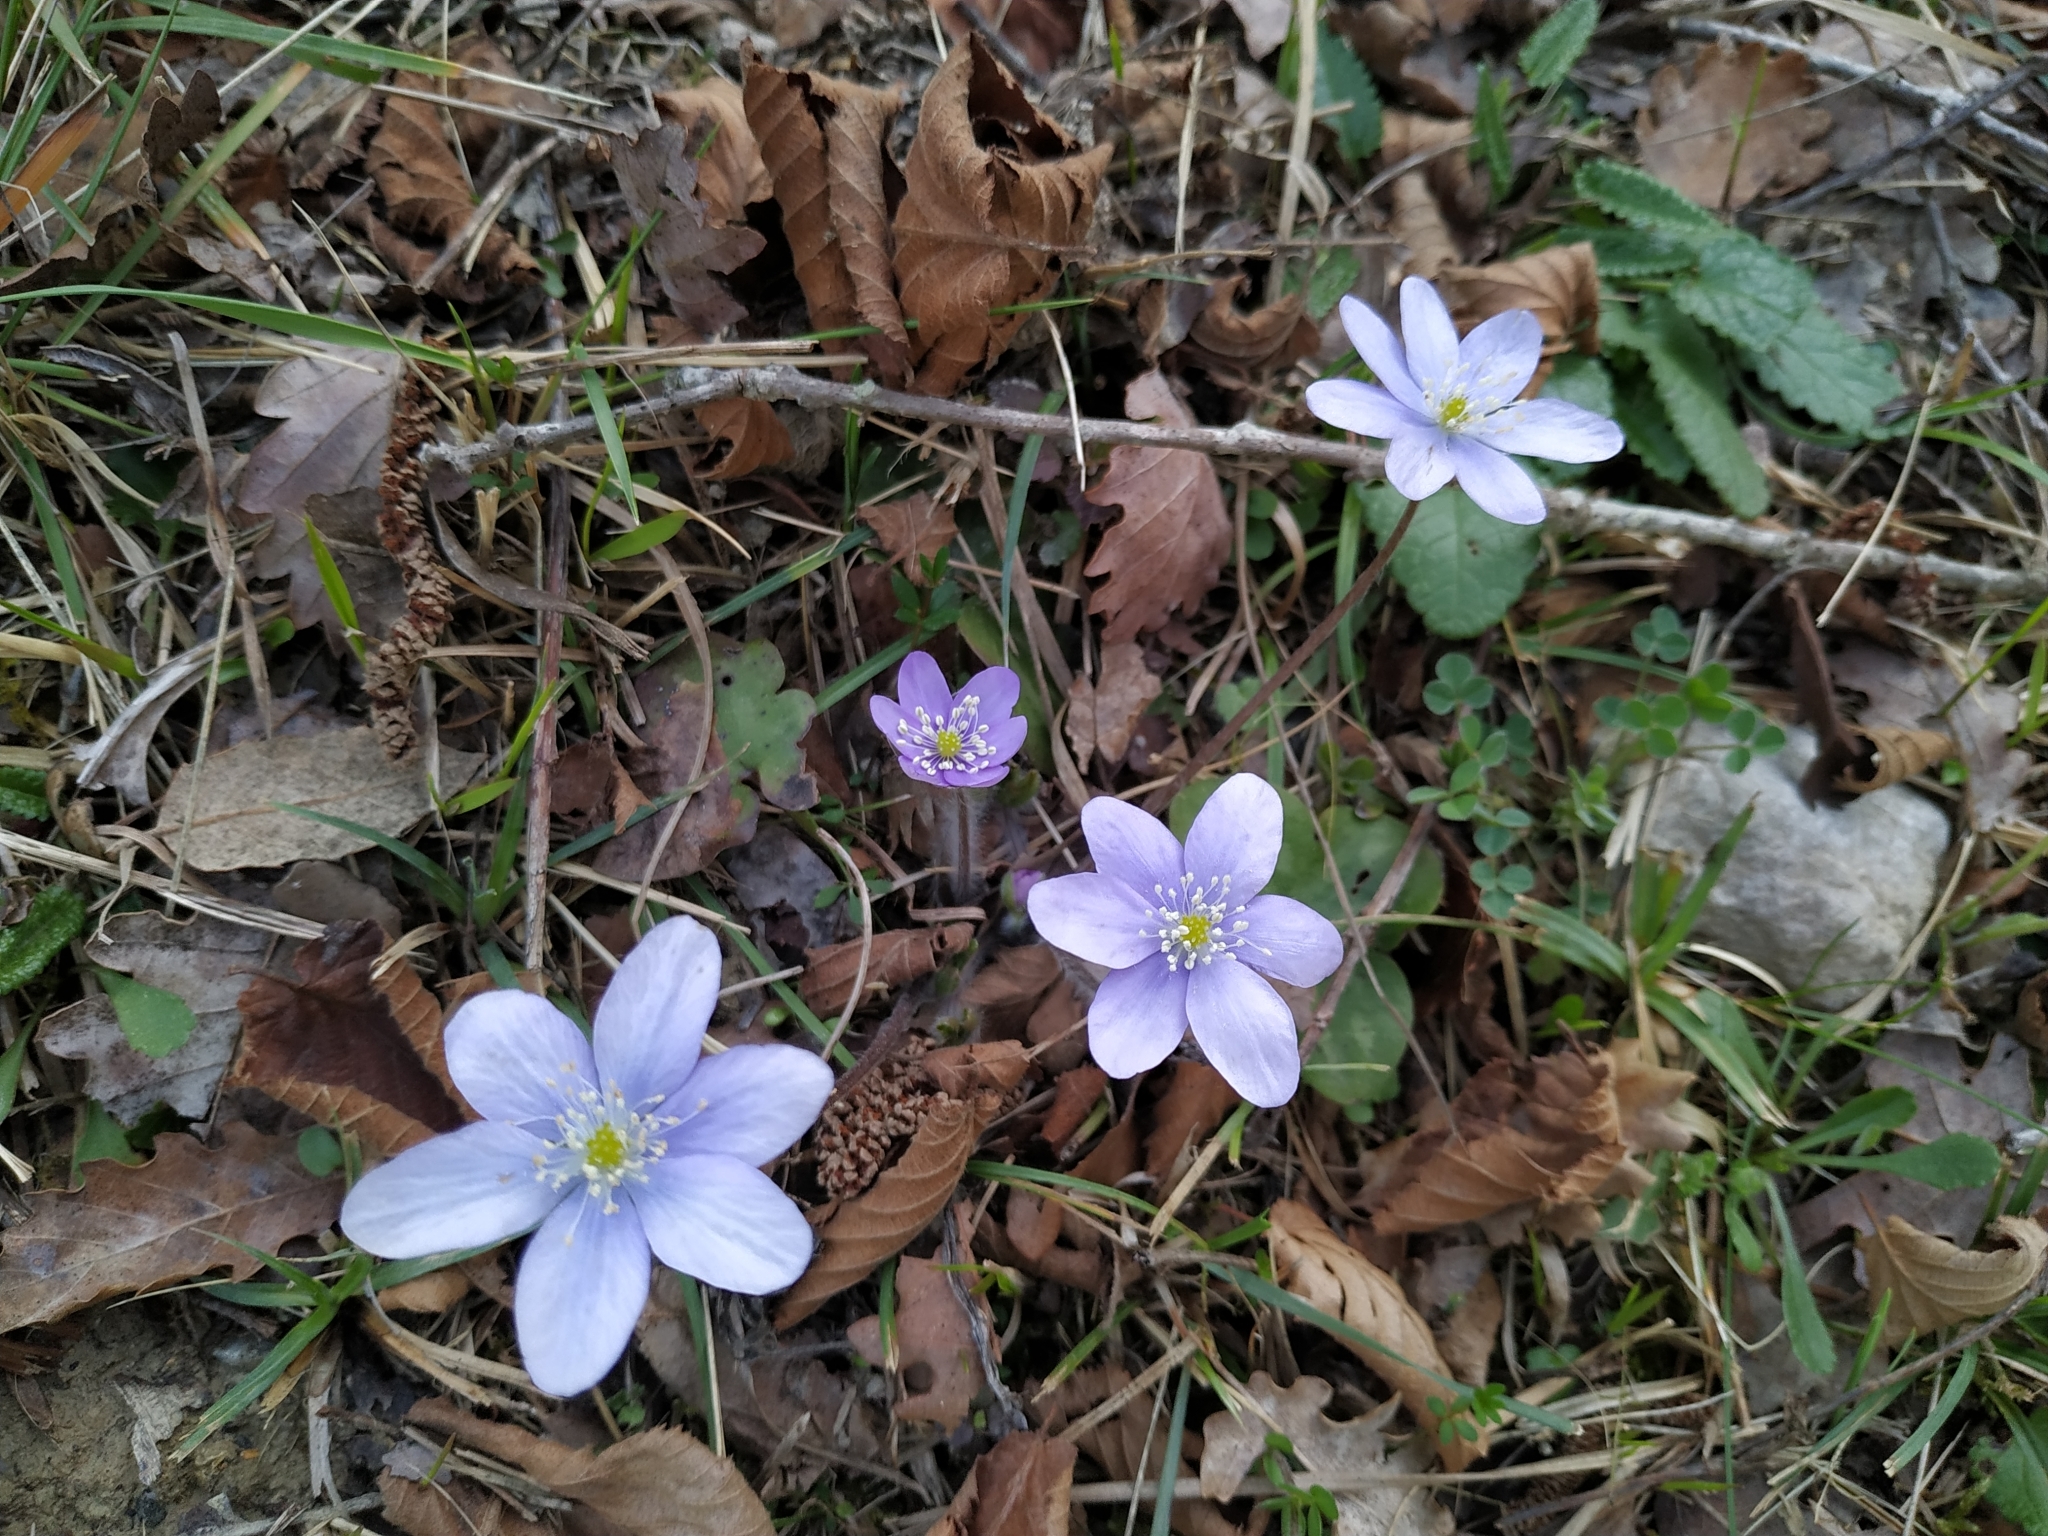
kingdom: Plantae
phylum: Tracheophyta
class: Magnoliopsida
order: Ranunculales
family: Ranunculaceae
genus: Hepatica
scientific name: Hepatica nobilis
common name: Liverleaf
